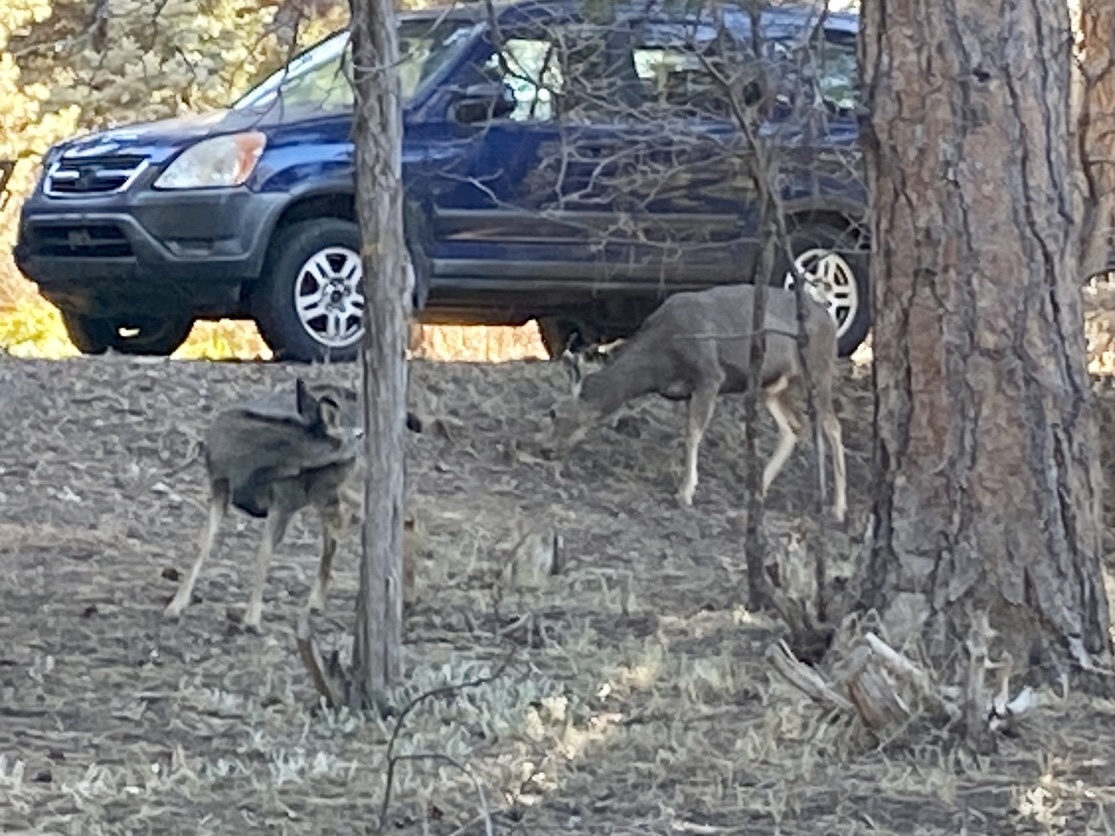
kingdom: Animalia
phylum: Chordata
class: Mammalia
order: Artiodactyla
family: Cervidae
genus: Odocoileus
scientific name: Odocoileus hemionus
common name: Mule deer
